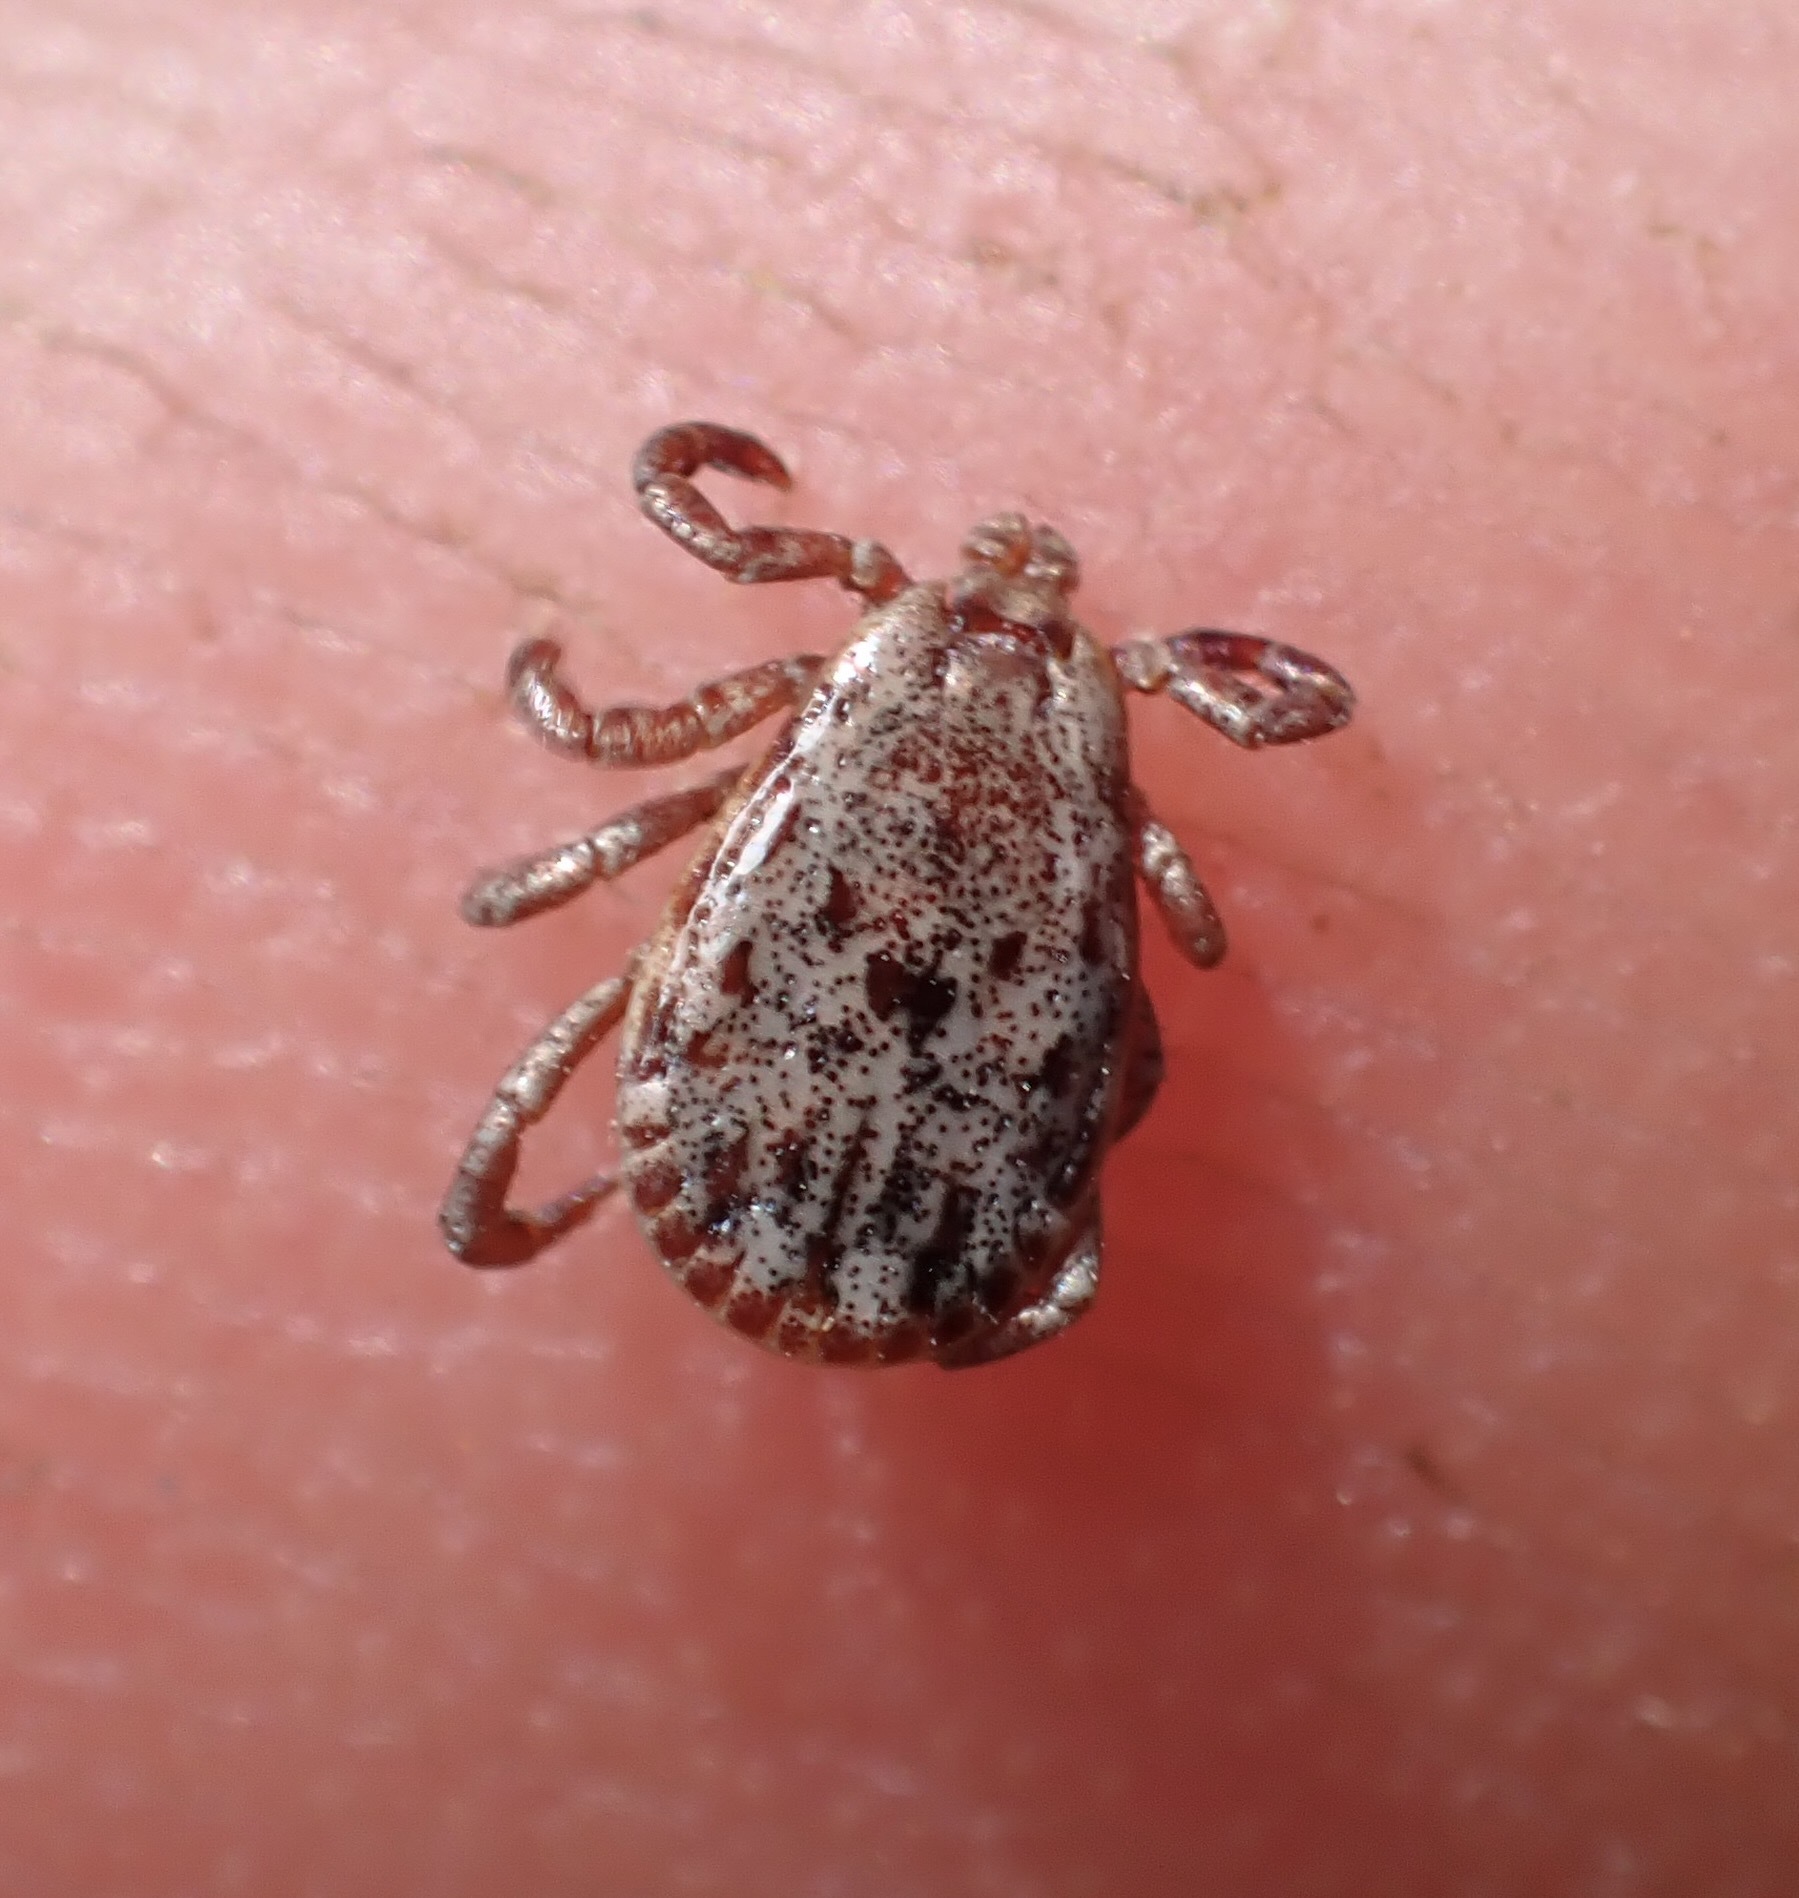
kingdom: Animalia
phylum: Arthropoda
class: Arachnida
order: Ixodida
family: Ixodidae
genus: Dermacentor
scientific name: Dermacentor occidentalis
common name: Net tick
